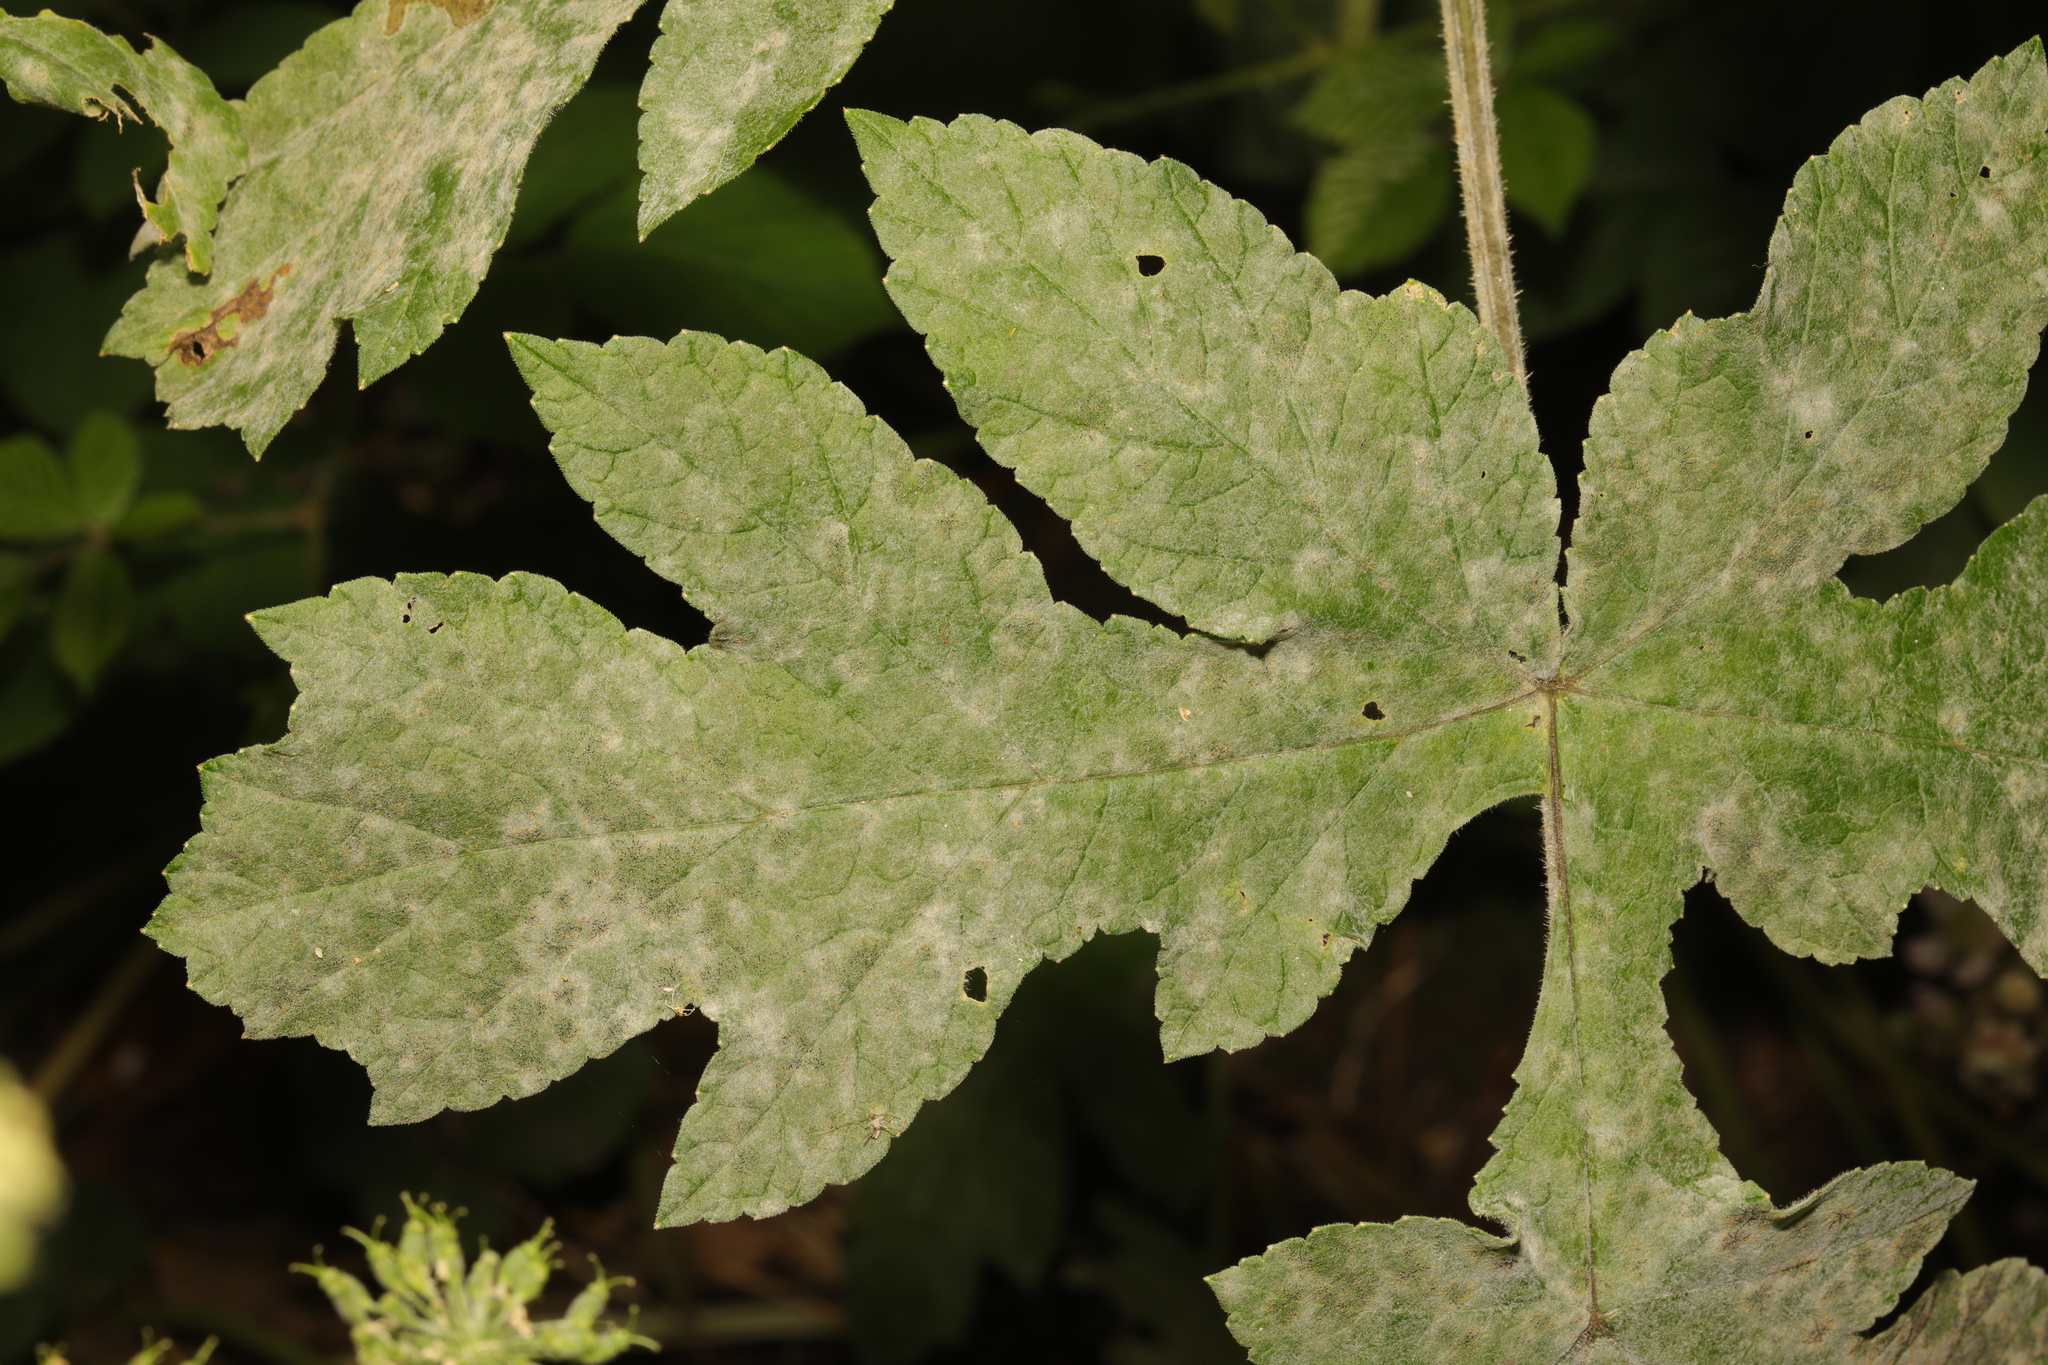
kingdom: Fungi
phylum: Ascomycota
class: Leotiomycetes
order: Helotiales
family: Erysiphaceae
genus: Erysiphe
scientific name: Erysiphe heraclei
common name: Umbellifer mildew
